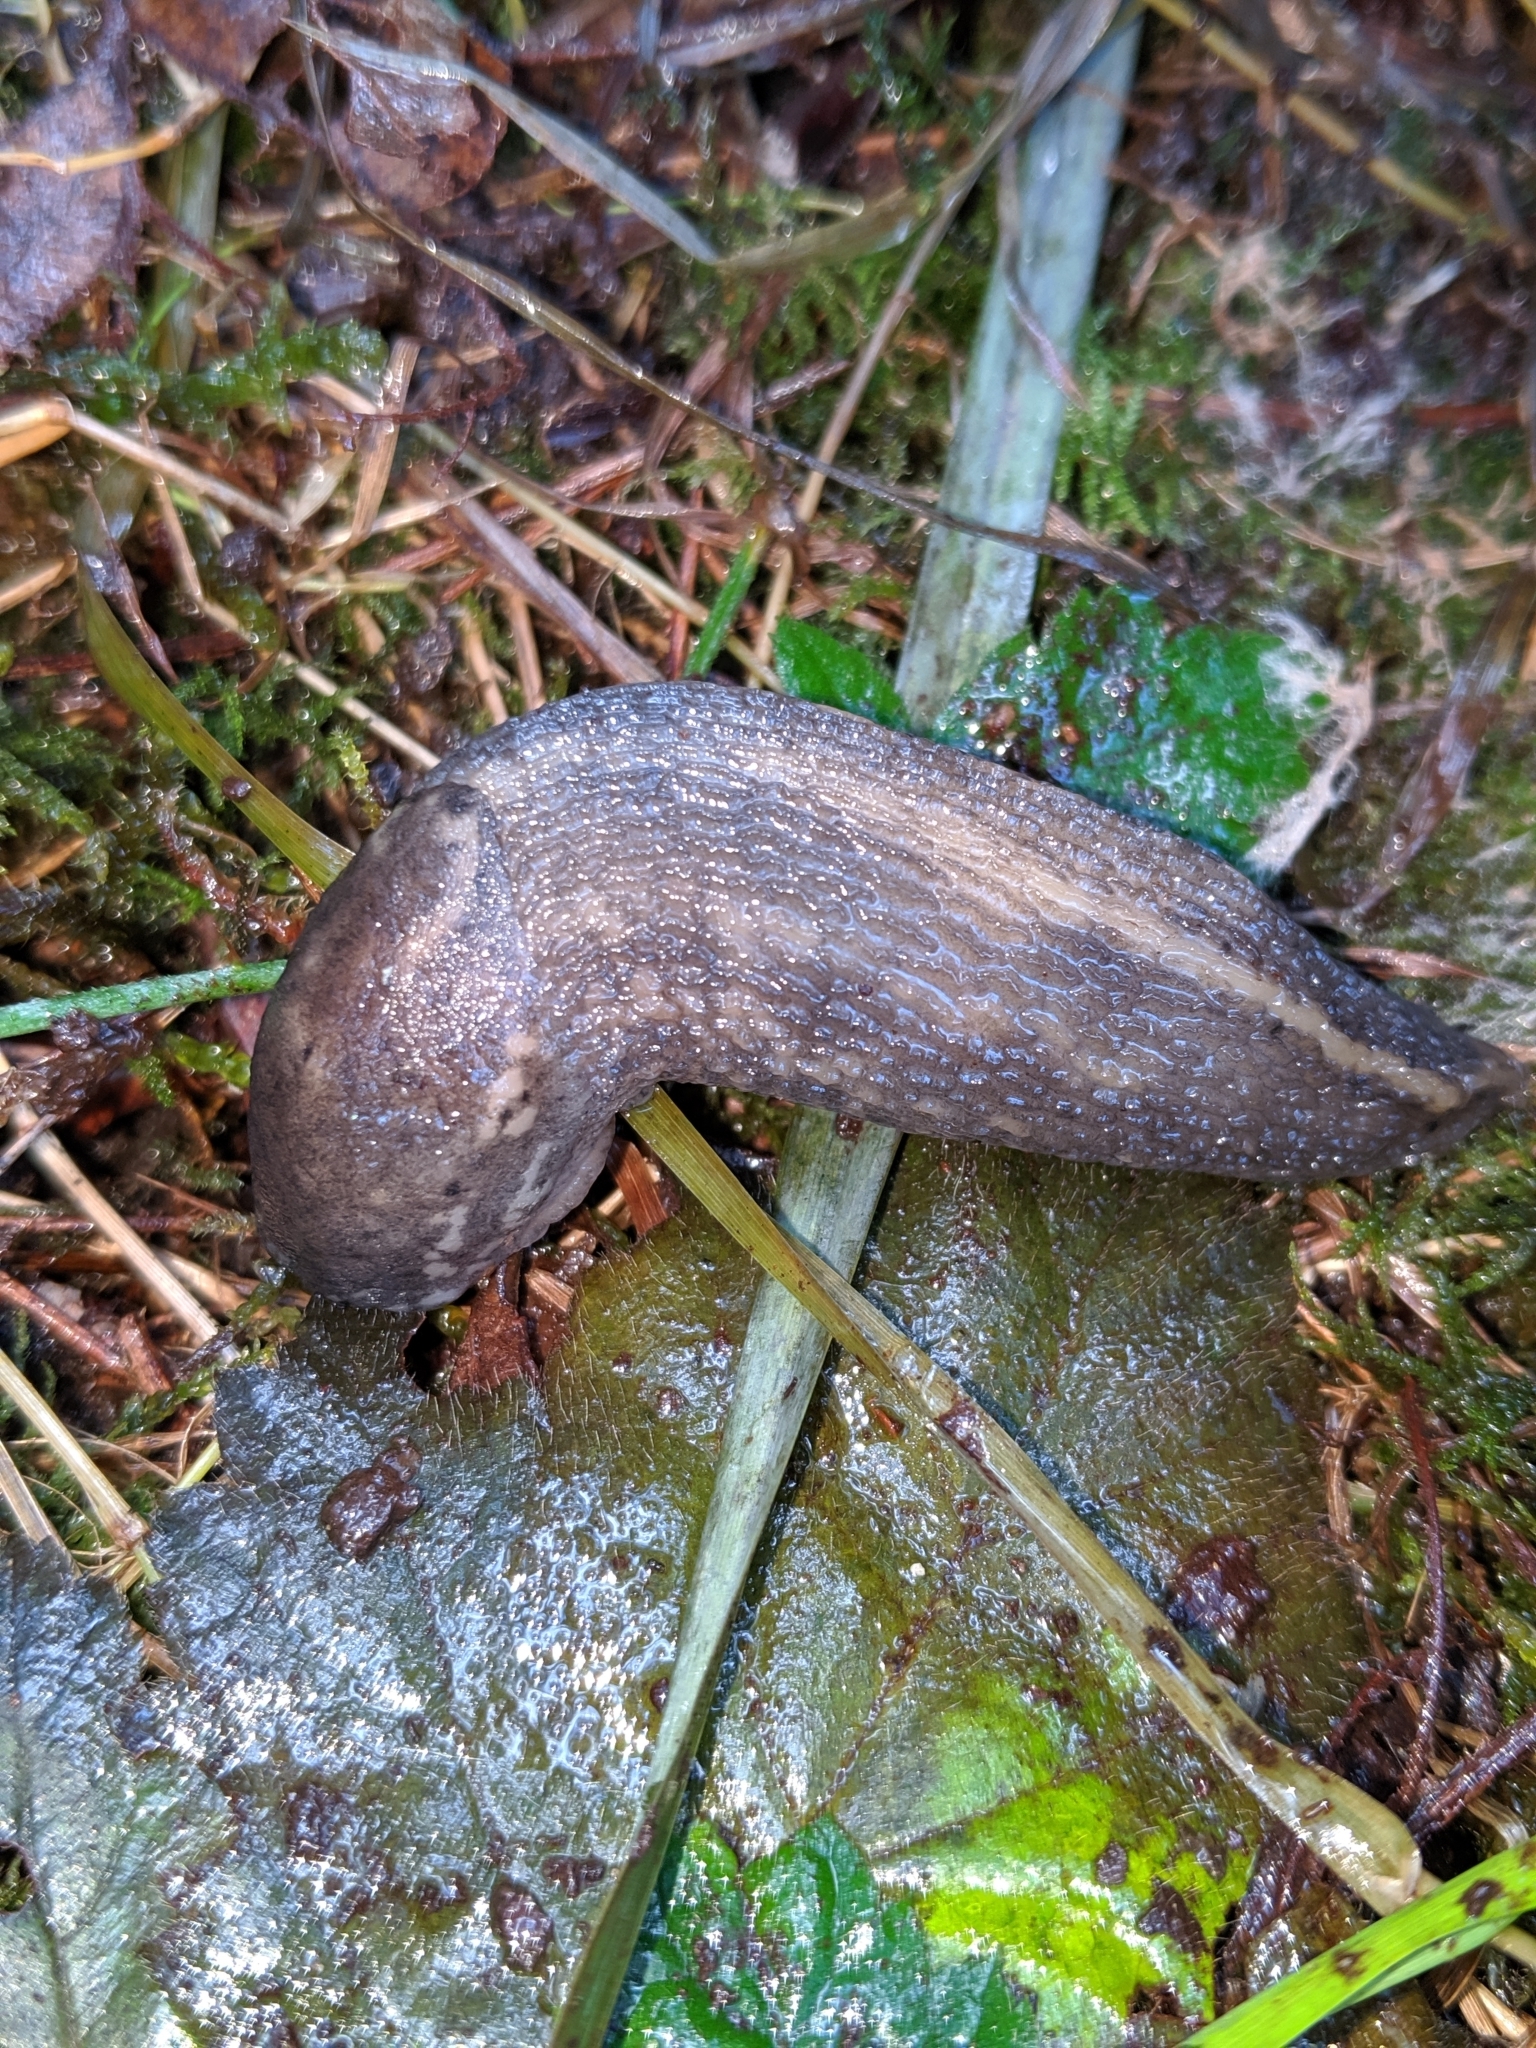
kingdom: Animalia
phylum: Mollusca
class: Gastropoda
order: Stylommatophora
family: Limacidae
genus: Limax
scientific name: Limax maximus
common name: Great grey slug
